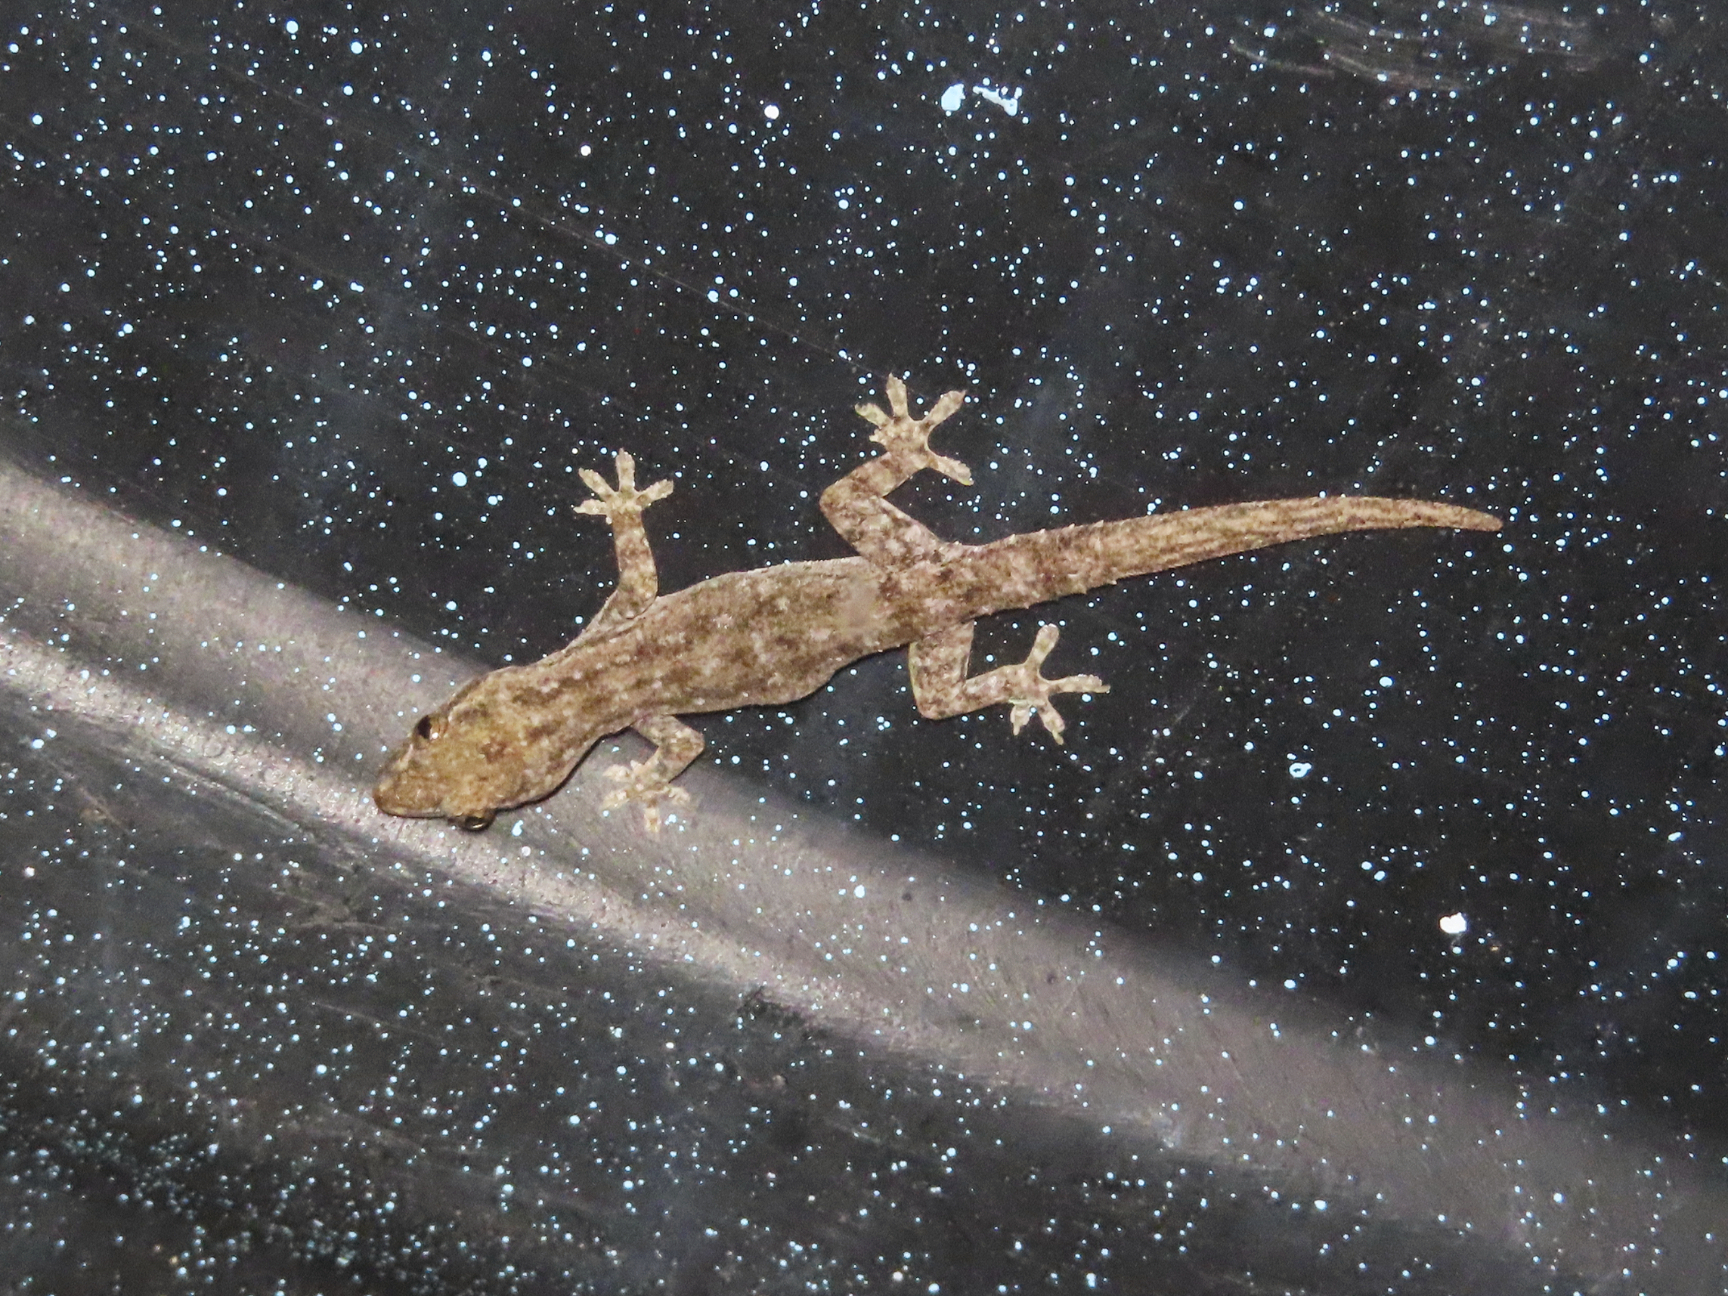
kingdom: Animalia
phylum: Chordata
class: Squamata
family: Gekkonidae
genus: Hemidactylus
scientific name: Hemidactylus frenatus
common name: Common house gecko
